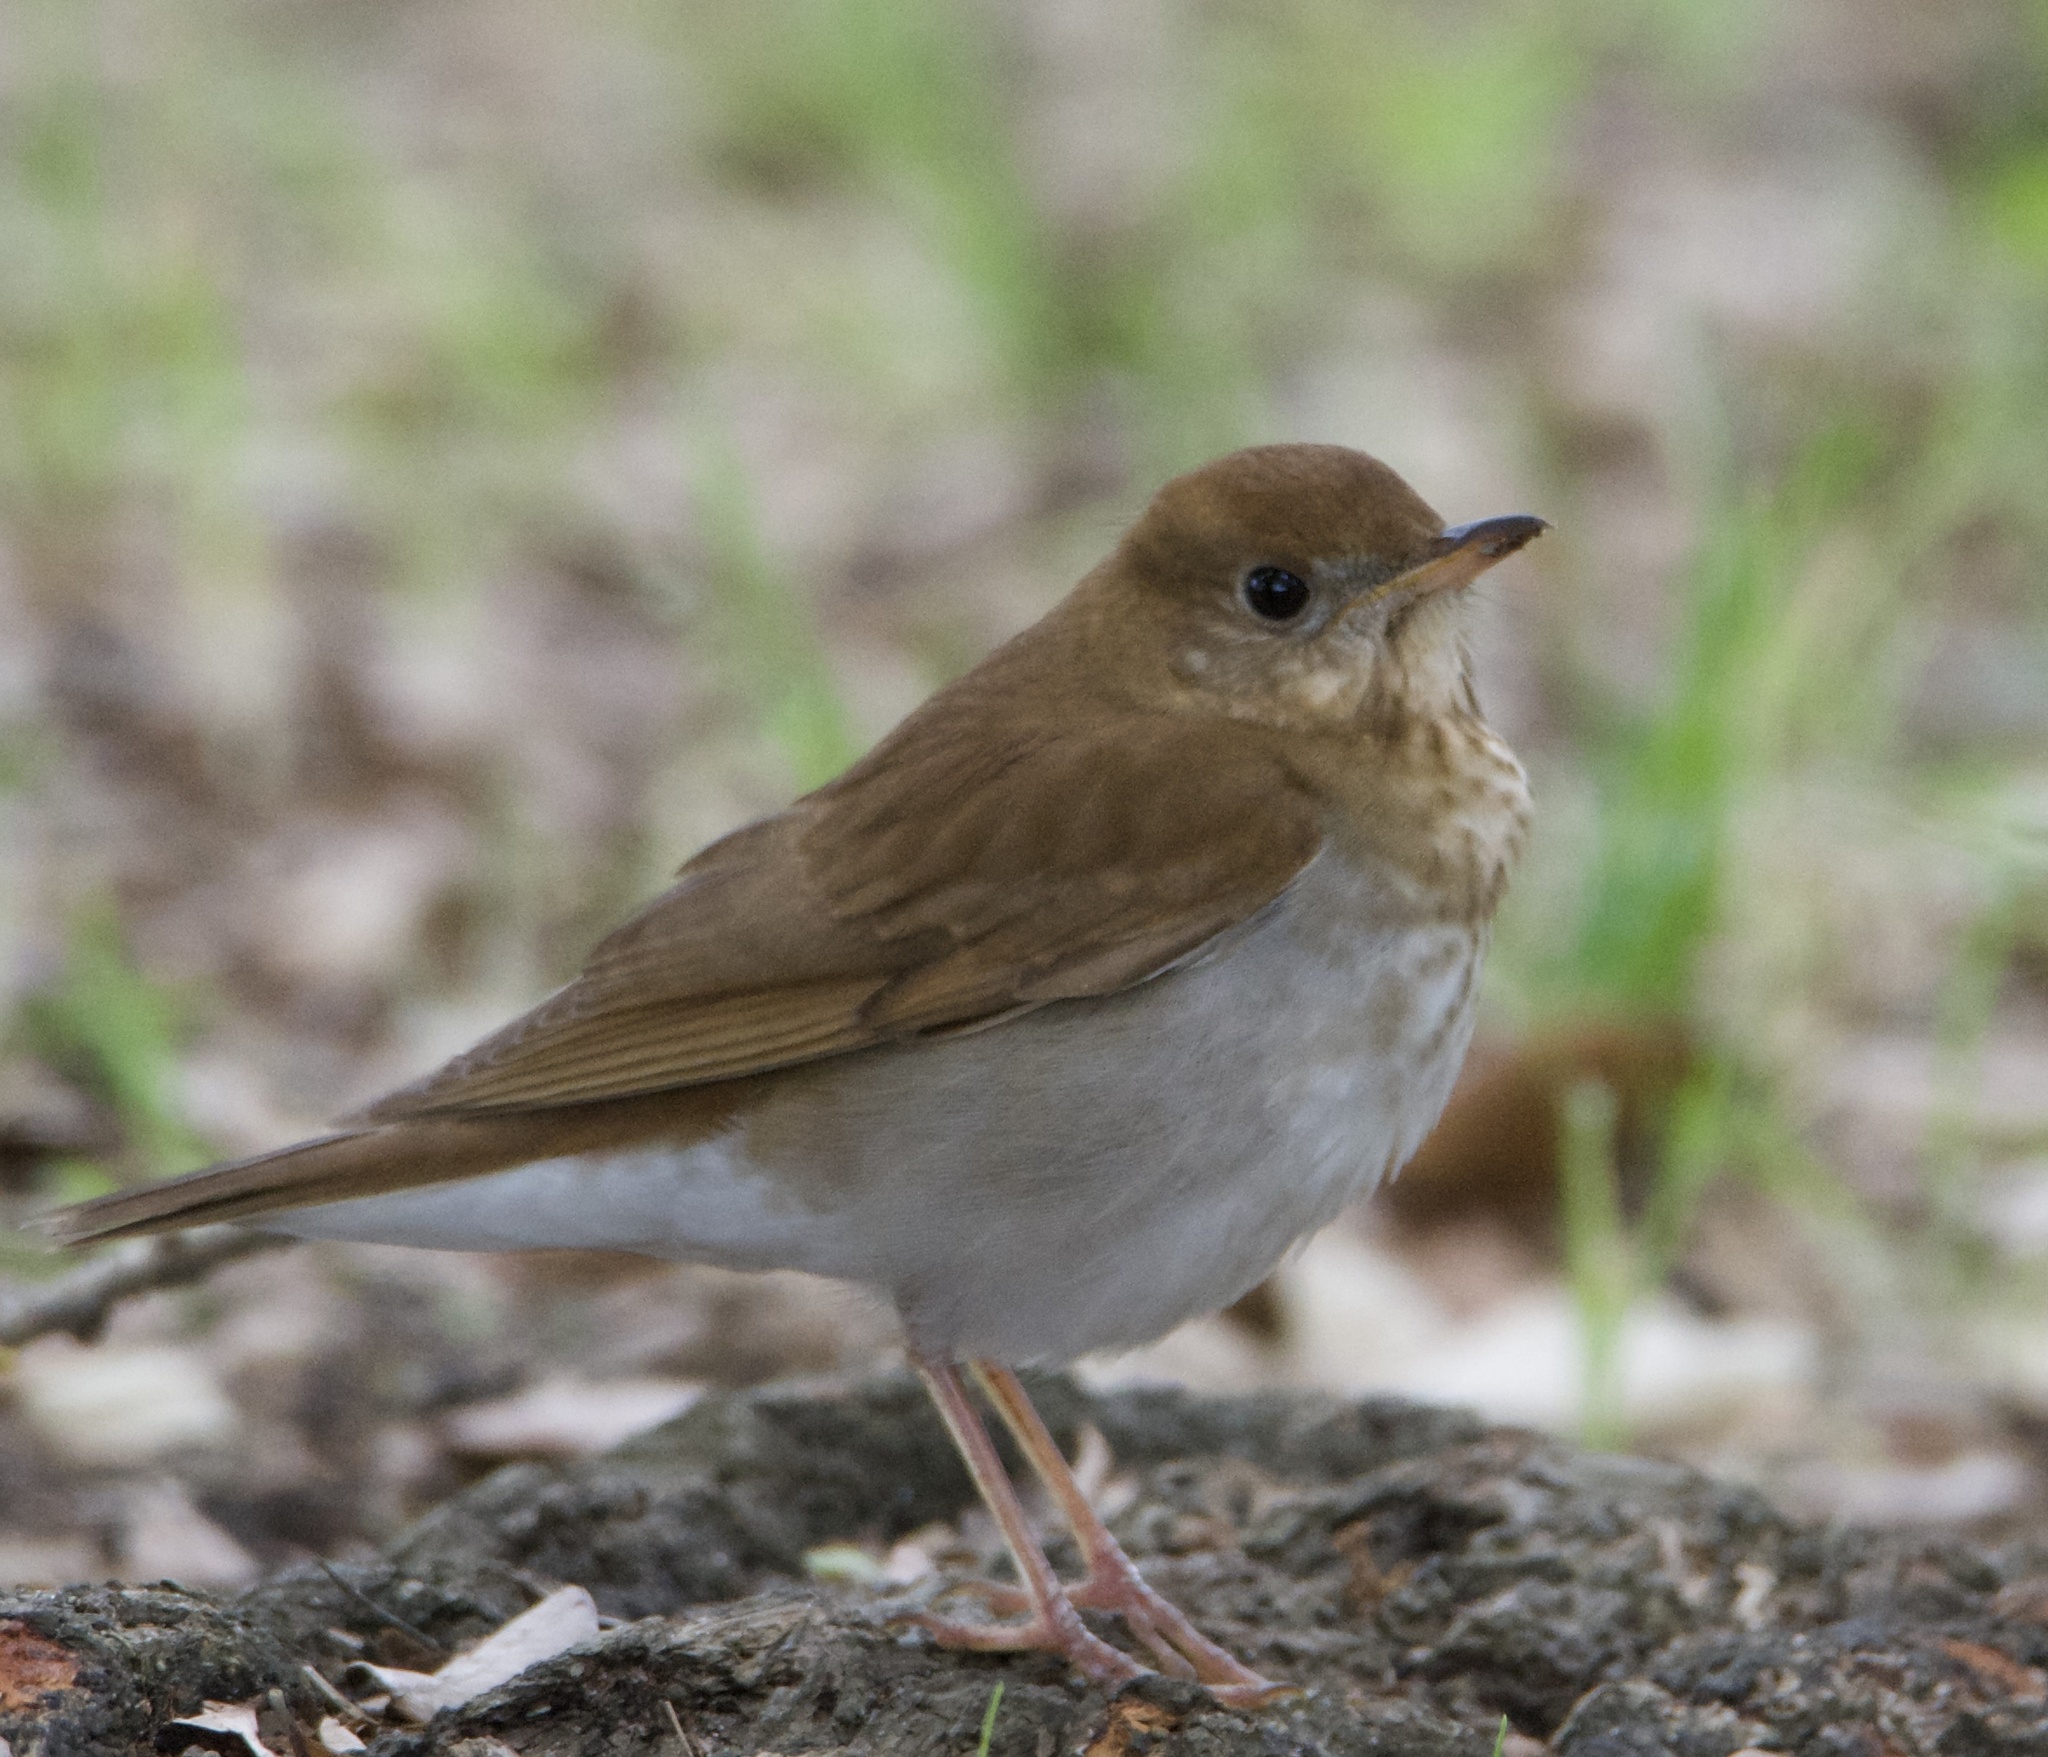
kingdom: Animalia
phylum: Chordata
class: Aves
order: Passeriformes
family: Turdidae
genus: Catharus
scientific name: Catharus fuscescens
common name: Veery
